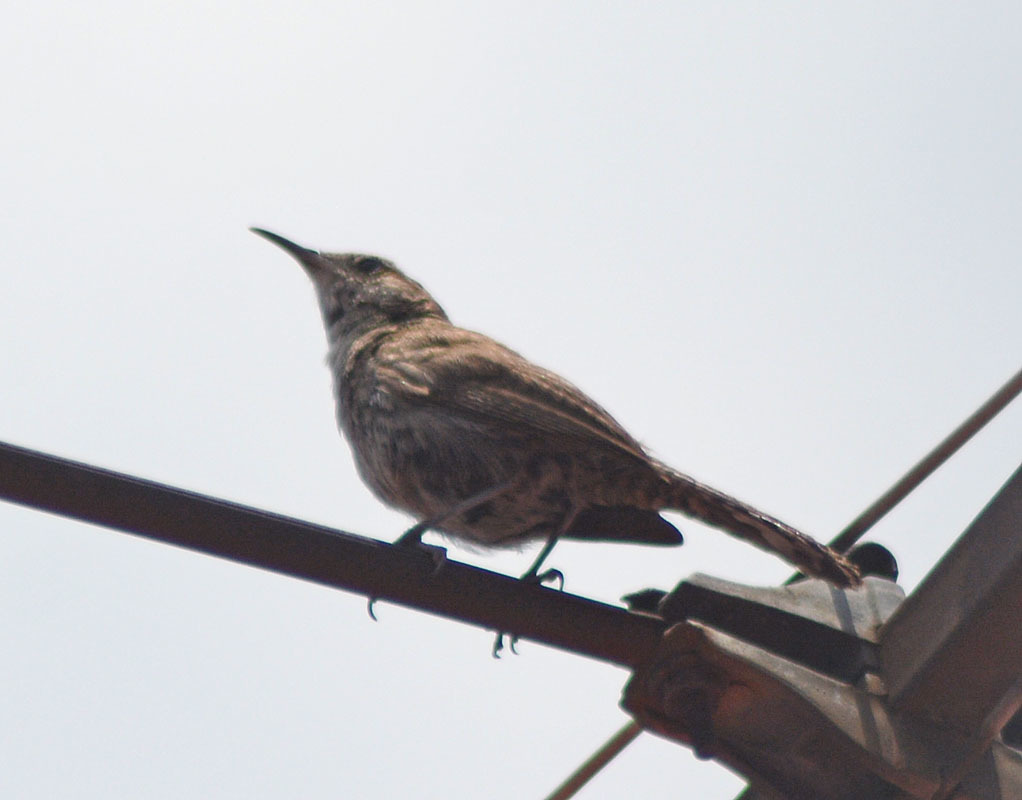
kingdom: Animalia
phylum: Chordata
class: Aves
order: Passeriformes
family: Troglodytidae
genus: Thryomanes
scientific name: Thryomanes bewickii
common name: Bewick's wren
